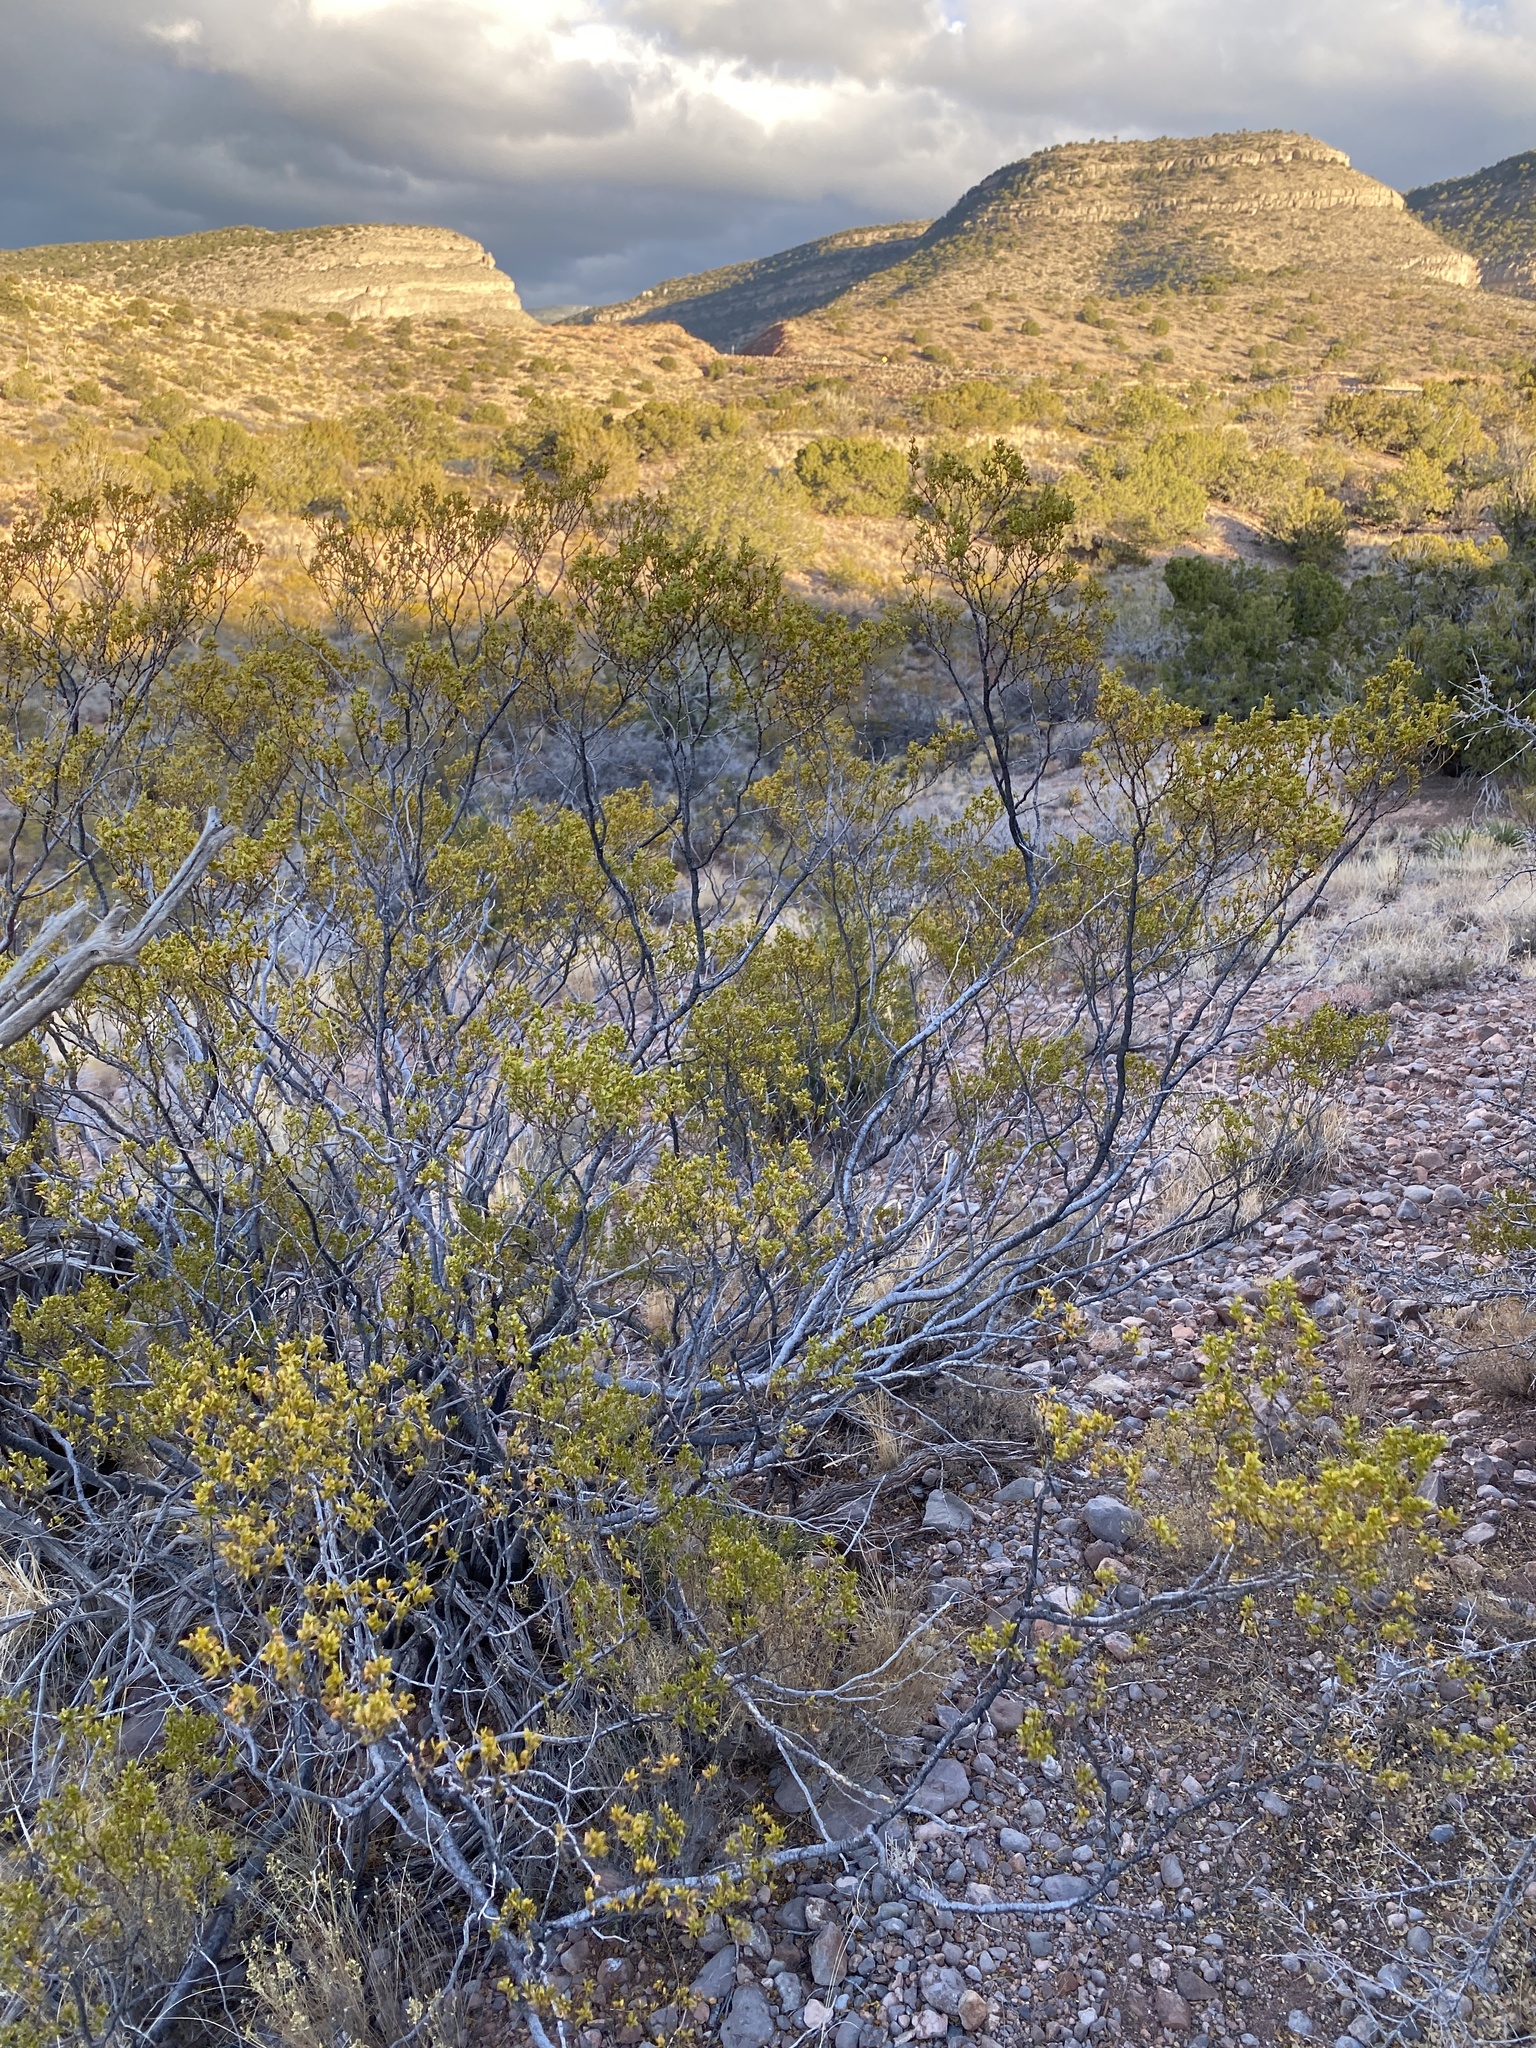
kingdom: Plantae
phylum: Tracheophyta
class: Magnoliopsida
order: Zygophyllales
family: Zygophyllaceae
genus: Larrea
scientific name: Larrea tridentata
